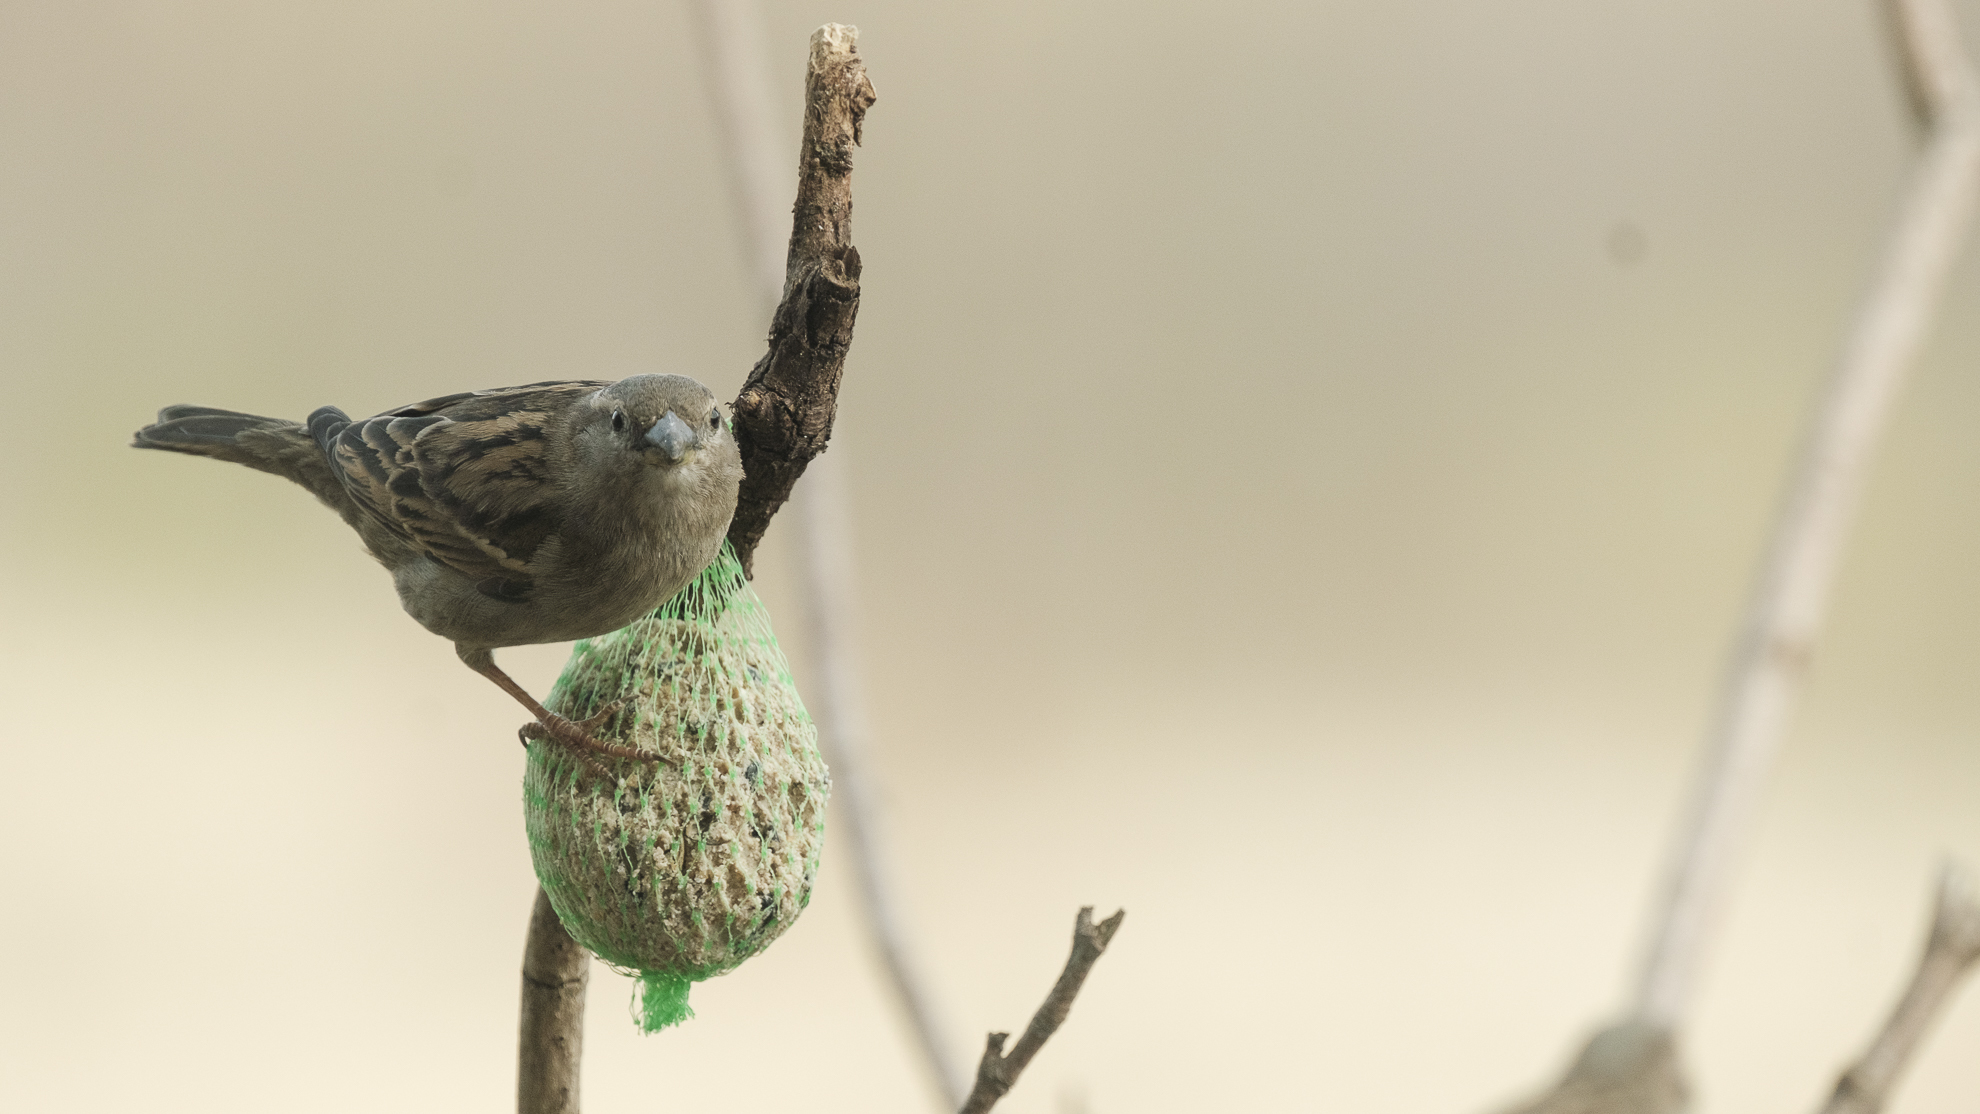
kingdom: Animalia
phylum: Chordata
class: Aves
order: Passeriformes
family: Passeridae
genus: Passer
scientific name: Passer domesticus
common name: House sparrow
